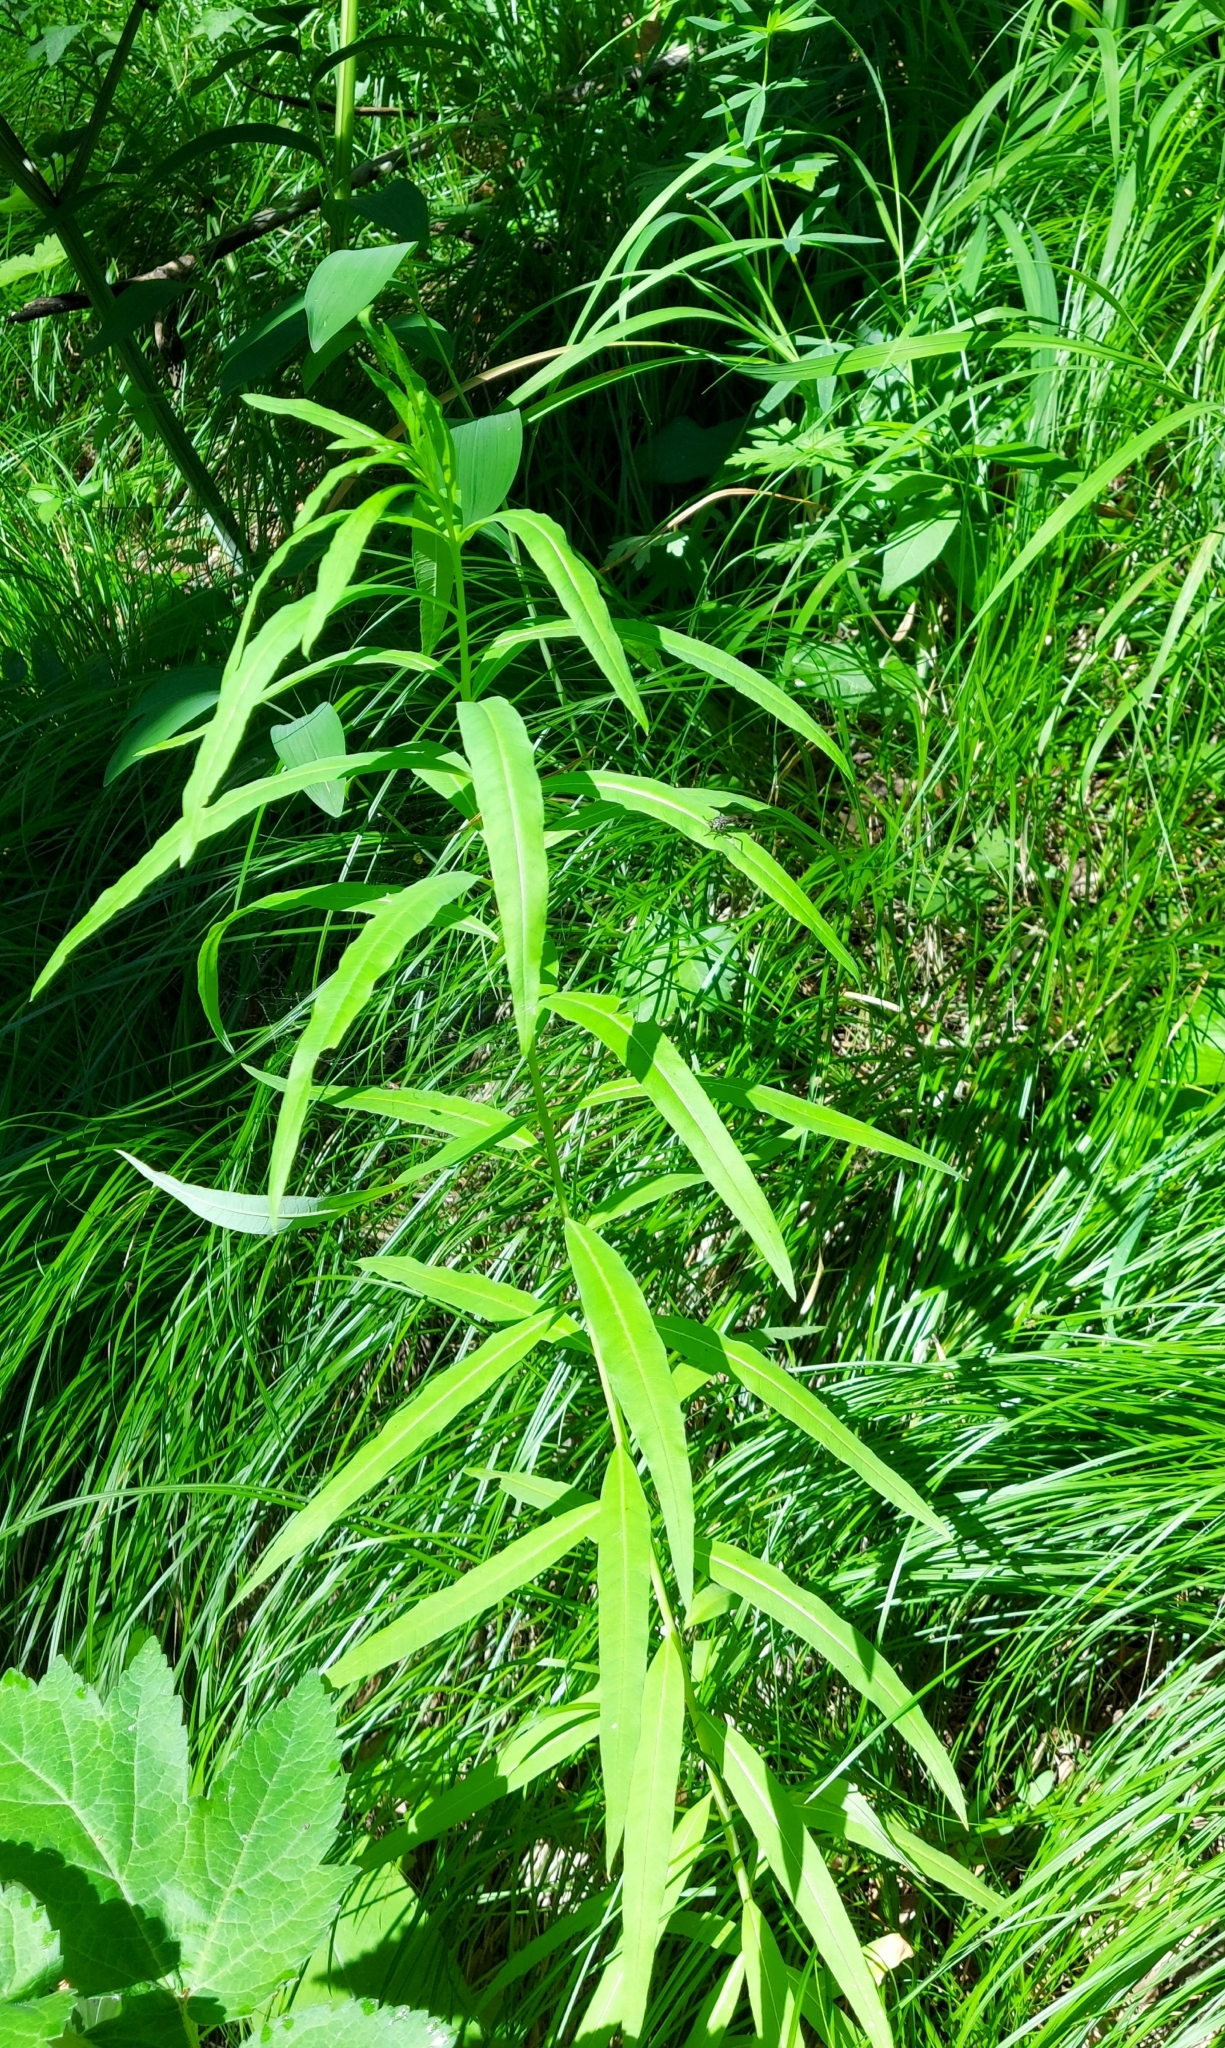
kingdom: Plantae
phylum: Tracheophyta
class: Magnoliopsida
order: Myrtales
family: Onagraceae
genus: Chamaenerion
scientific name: Chamaenerion angustifolium
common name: Fireweed
